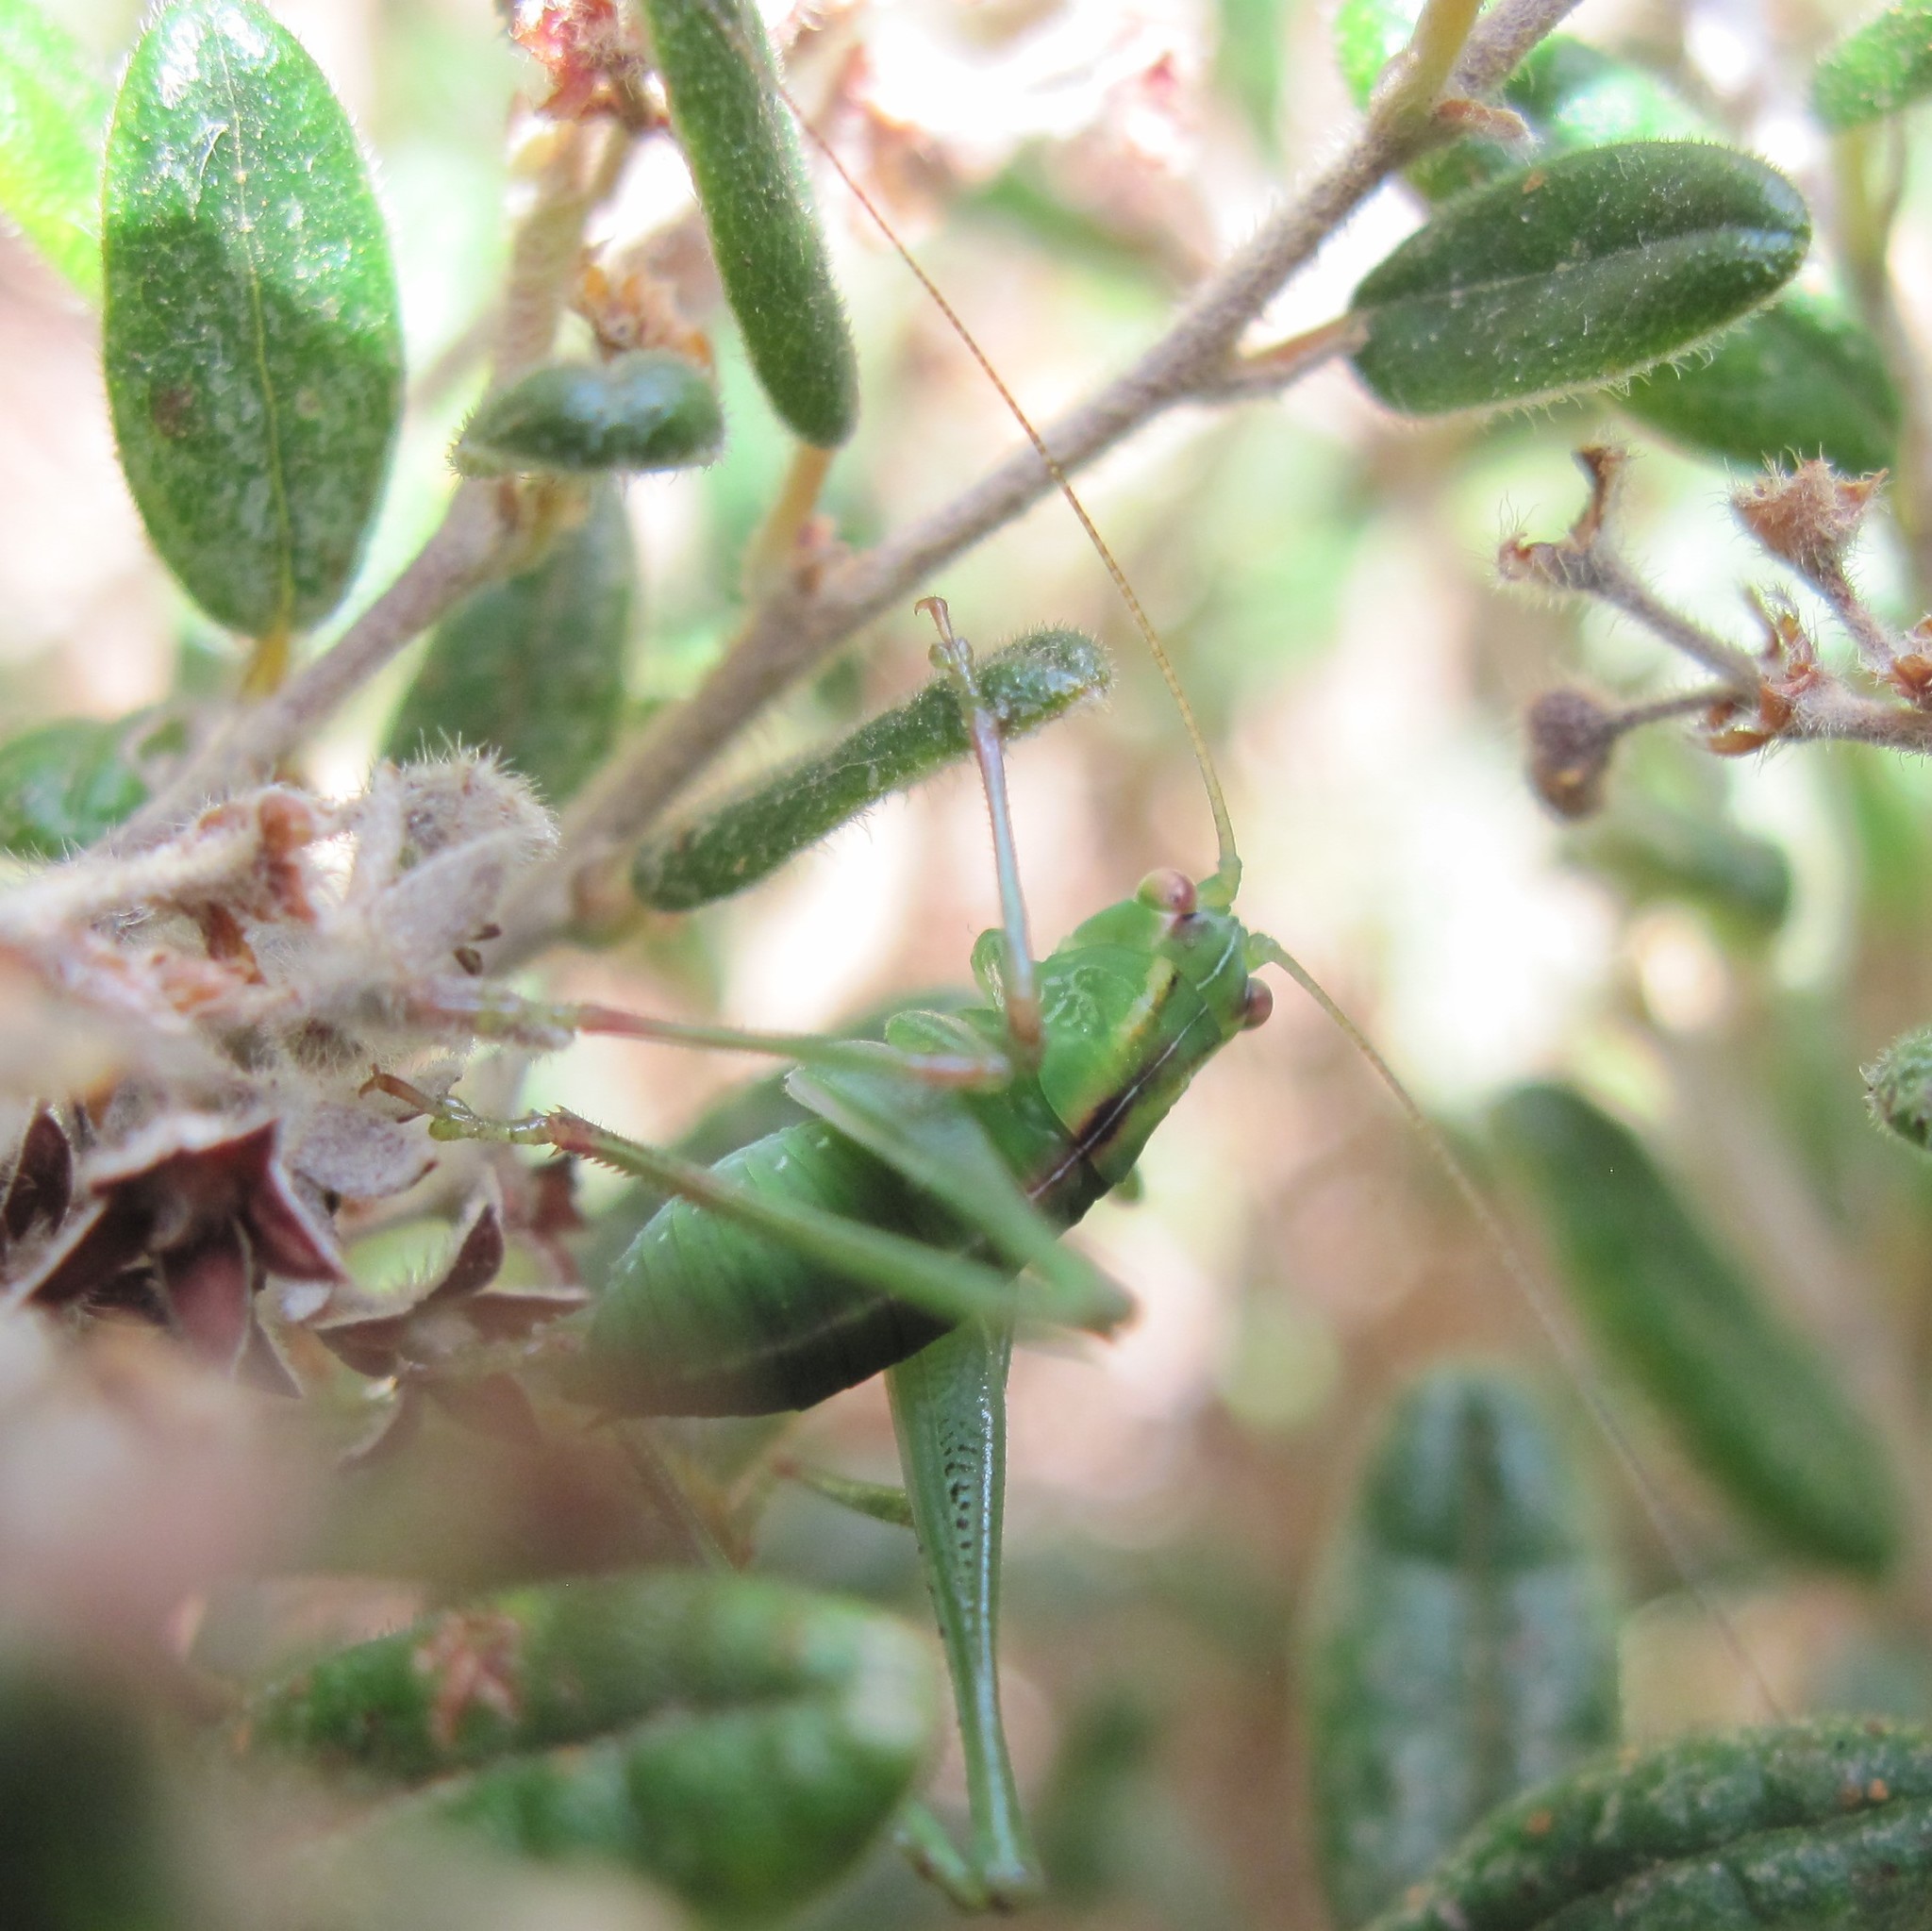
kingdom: Animalia
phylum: Arthropoda
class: Insecta
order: Orthoptera
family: Tettigoniidae
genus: Caedicia
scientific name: Caedicia simplex
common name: Common garden katydid
